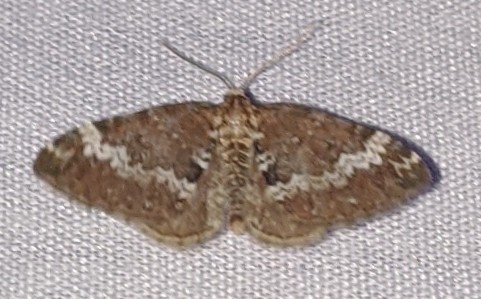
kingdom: Animalia
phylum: Arthropoda
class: Insecta
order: Lepidoptera
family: Geometridae
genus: Perizoma
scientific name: Perizoma alchemillata
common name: Small rivulet
